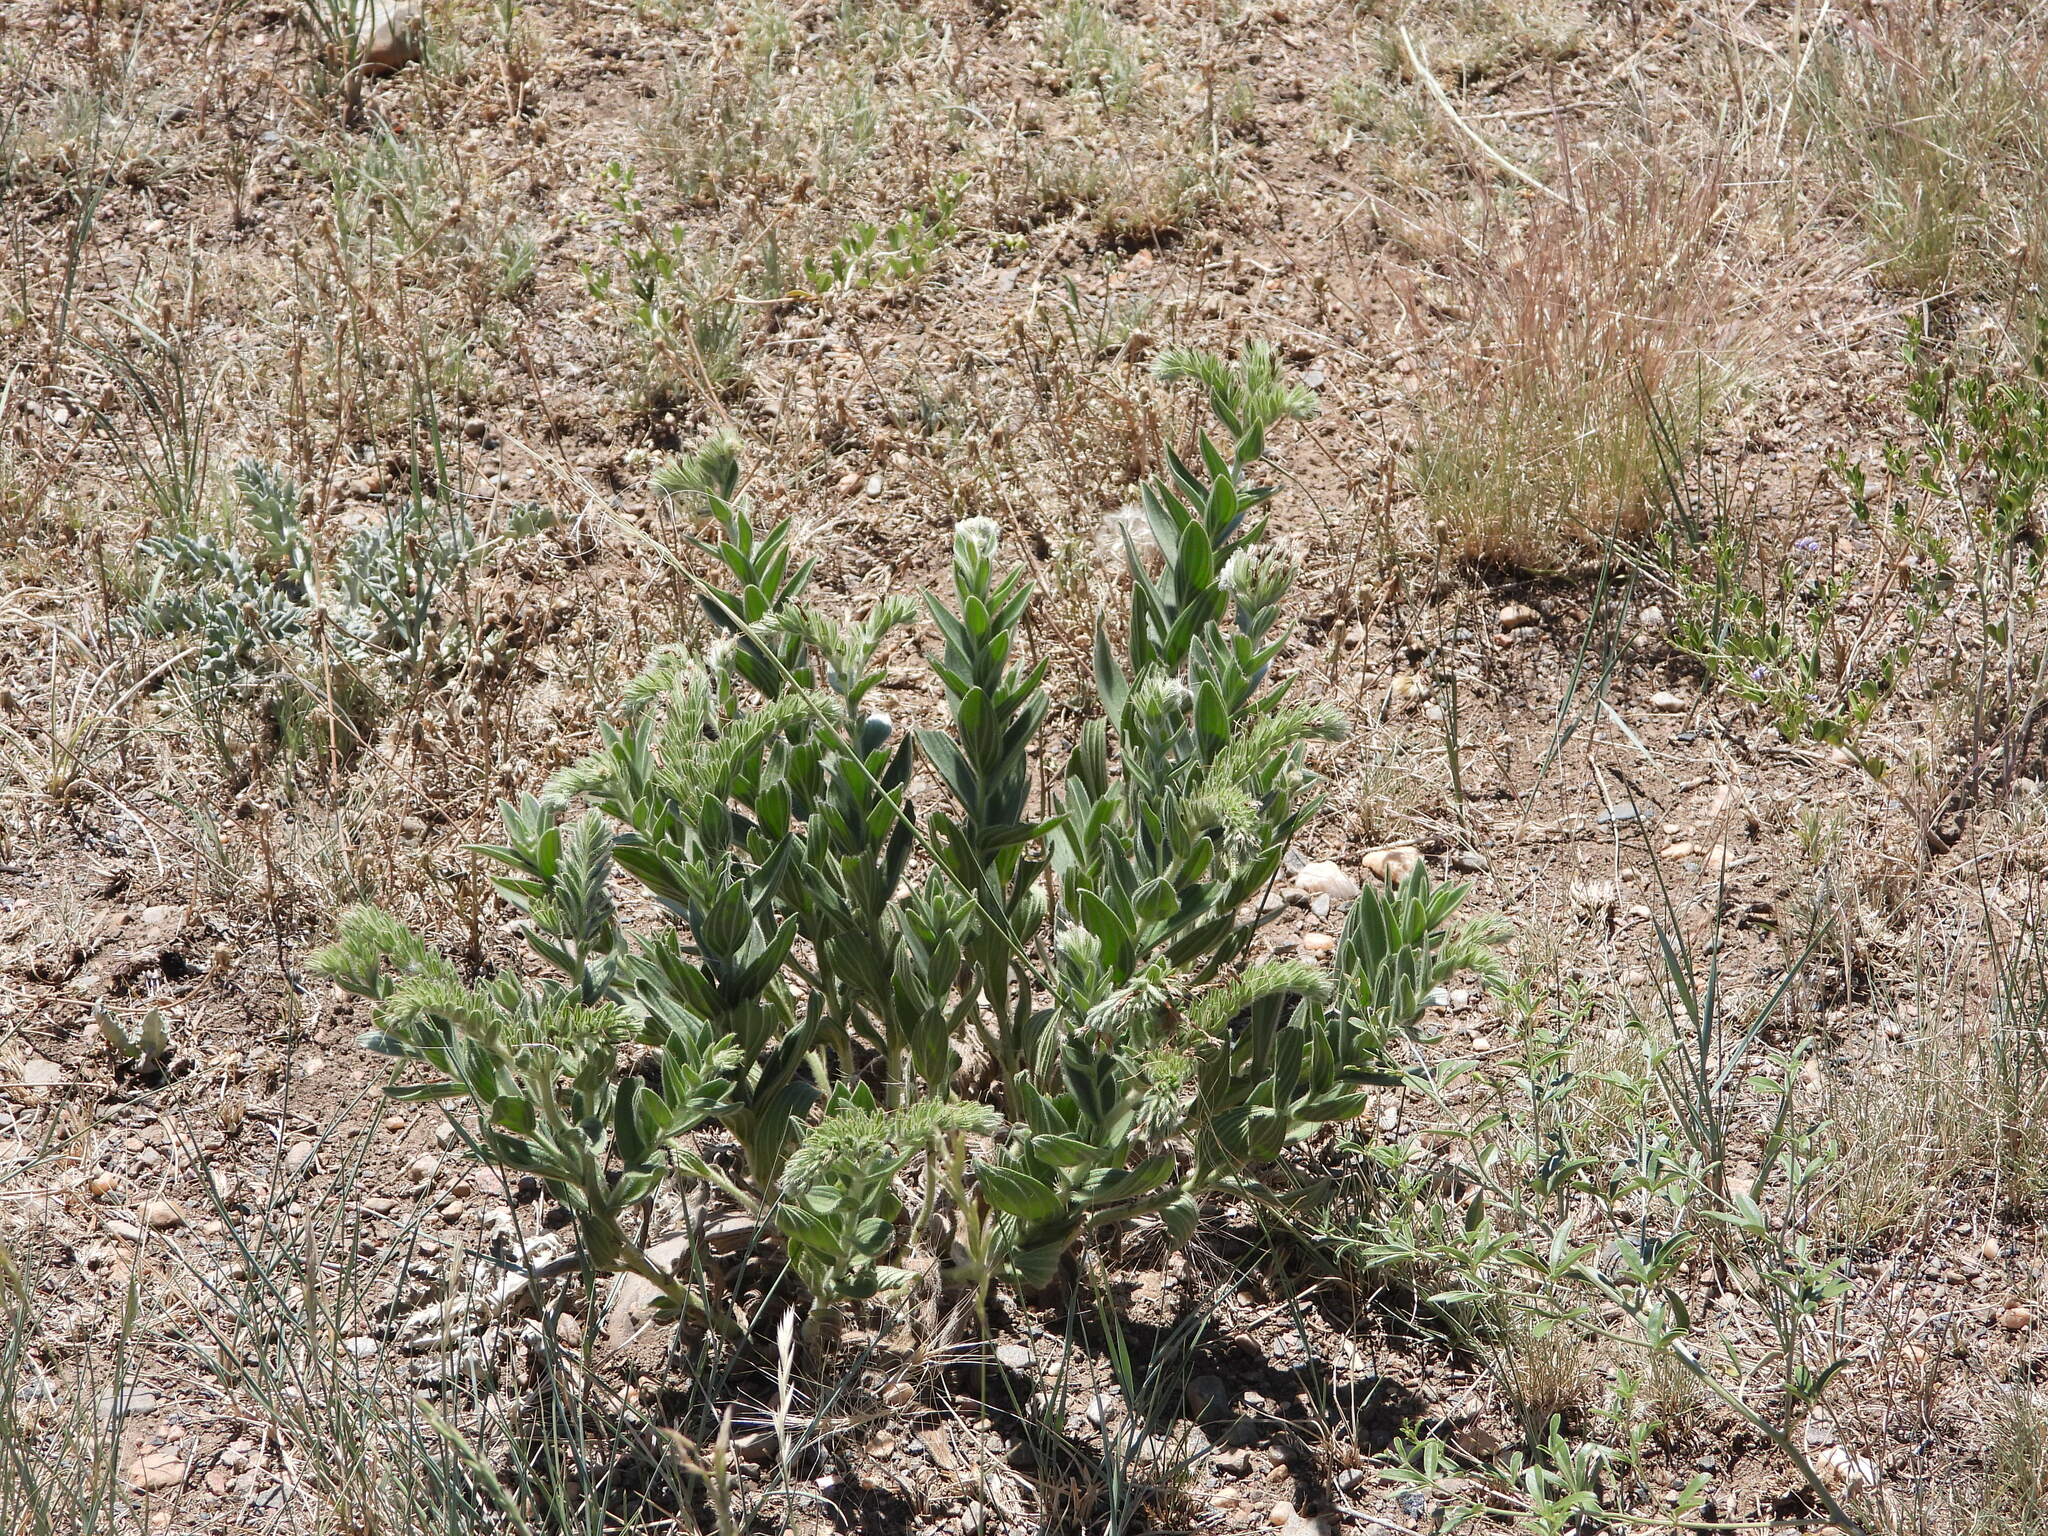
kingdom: Plantae
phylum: Tracheophyta
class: Magnoliopsida
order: Boraginales
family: Boraginaceae
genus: Lithospermum
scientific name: Lithospermum occidentale
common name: Western false gromwell
